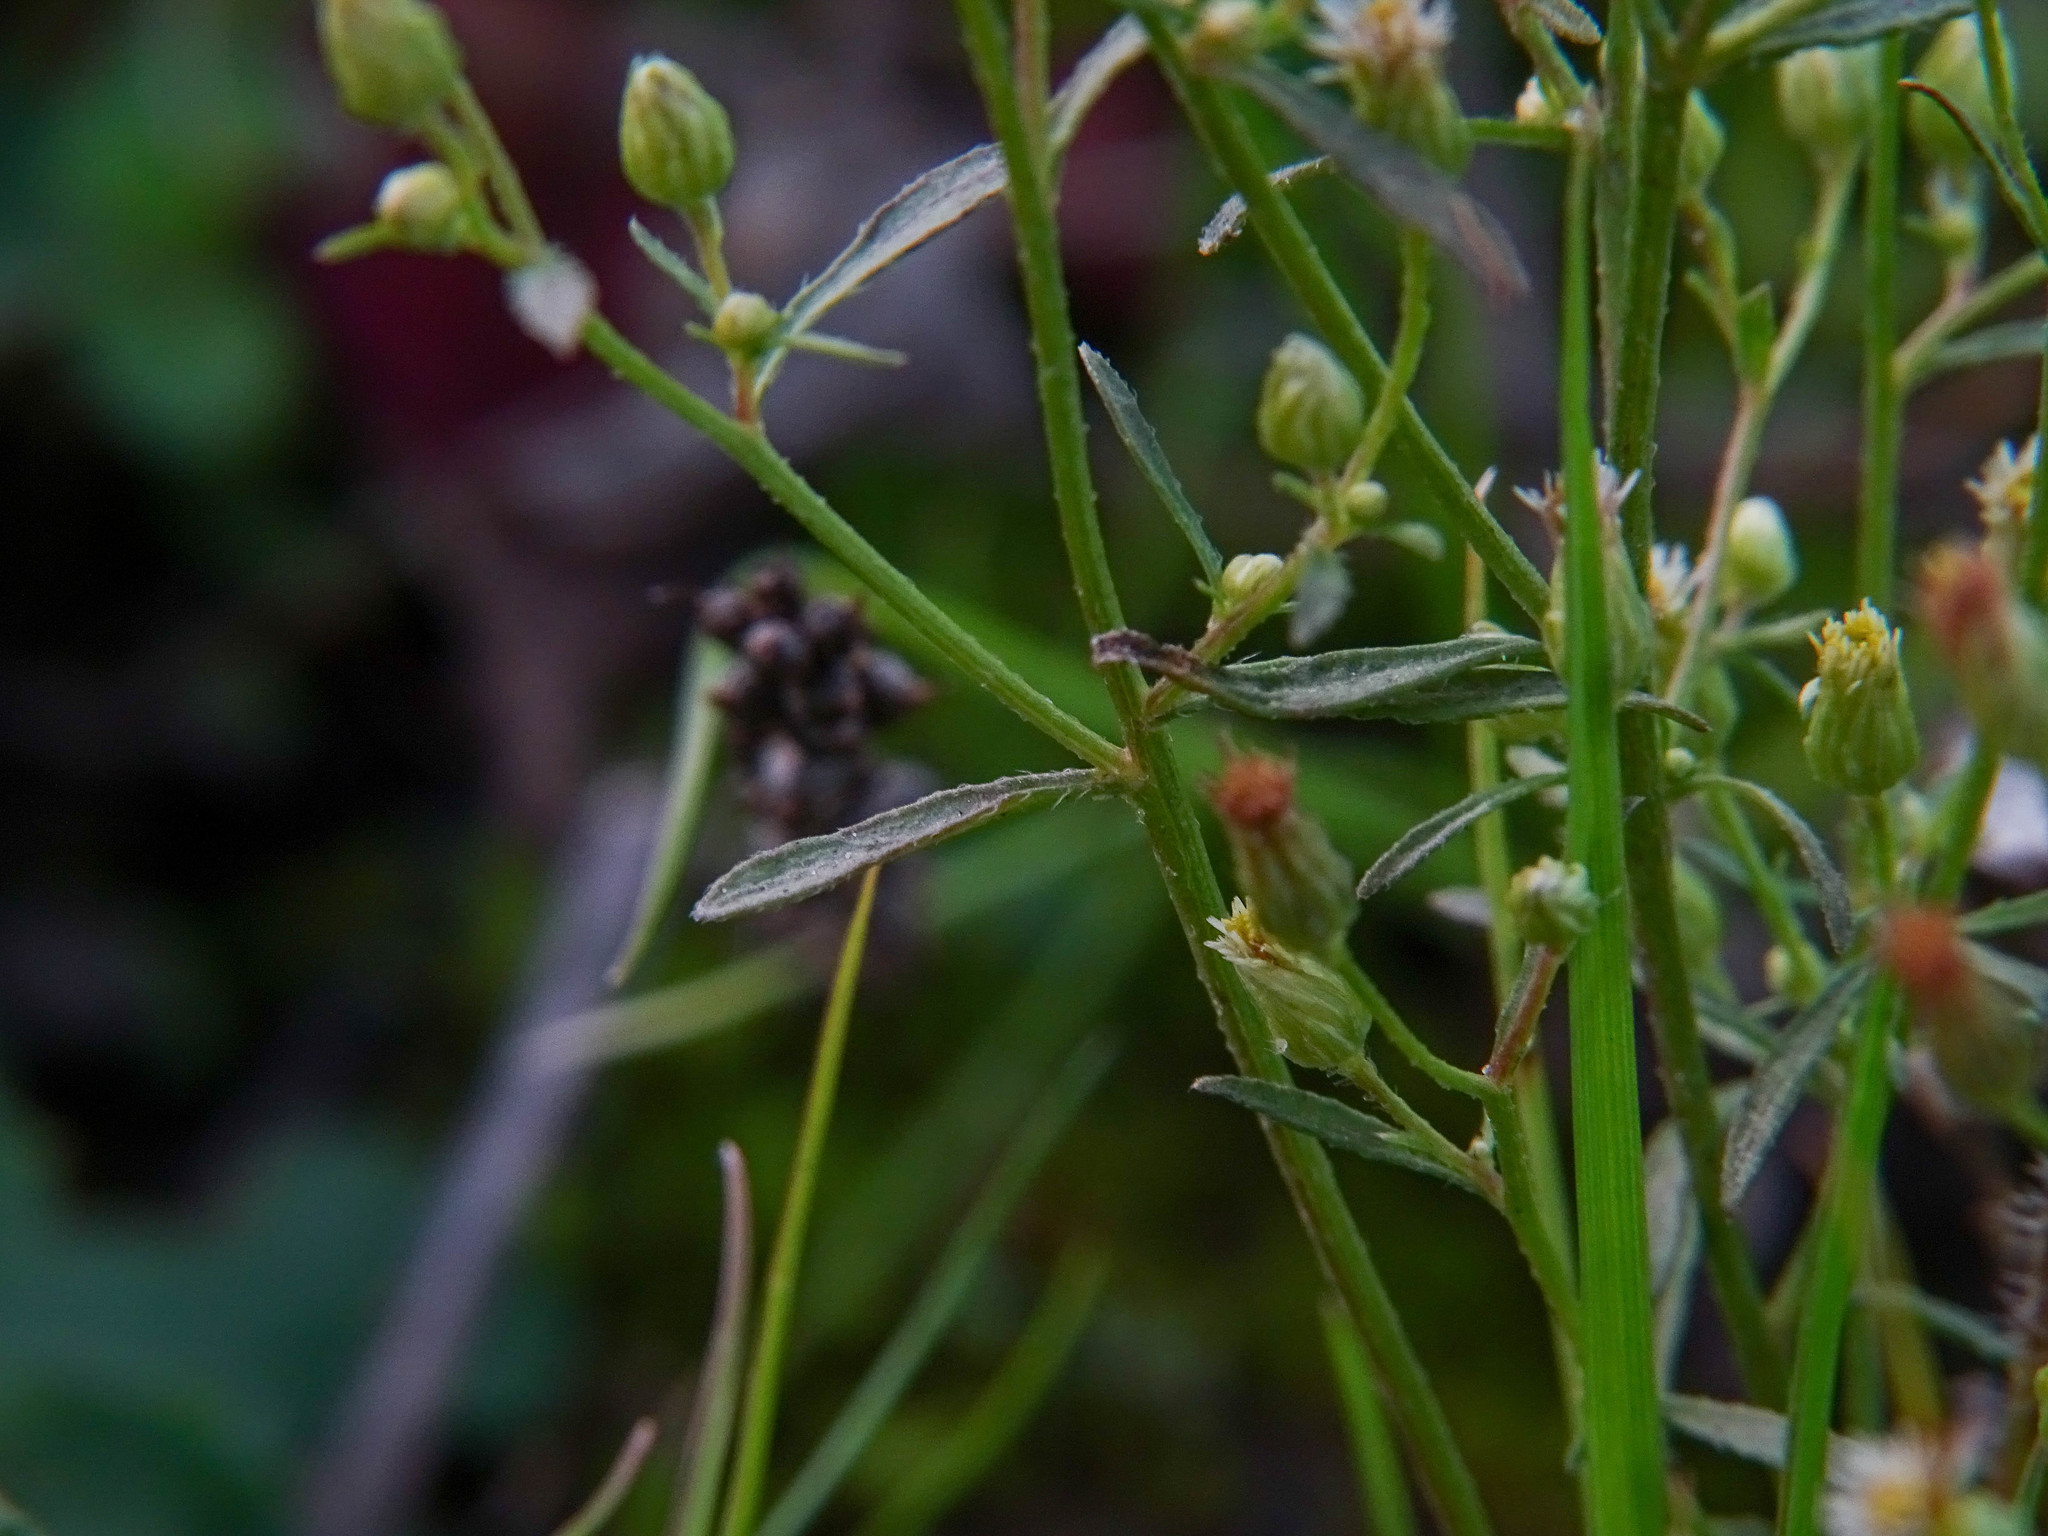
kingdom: Plantae
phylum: Tracheophyta
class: Magnoliopsida
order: Asterales
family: Asteraceae
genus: Erigeron
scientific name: Erigeron canadensis
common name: Canadian fleabane
